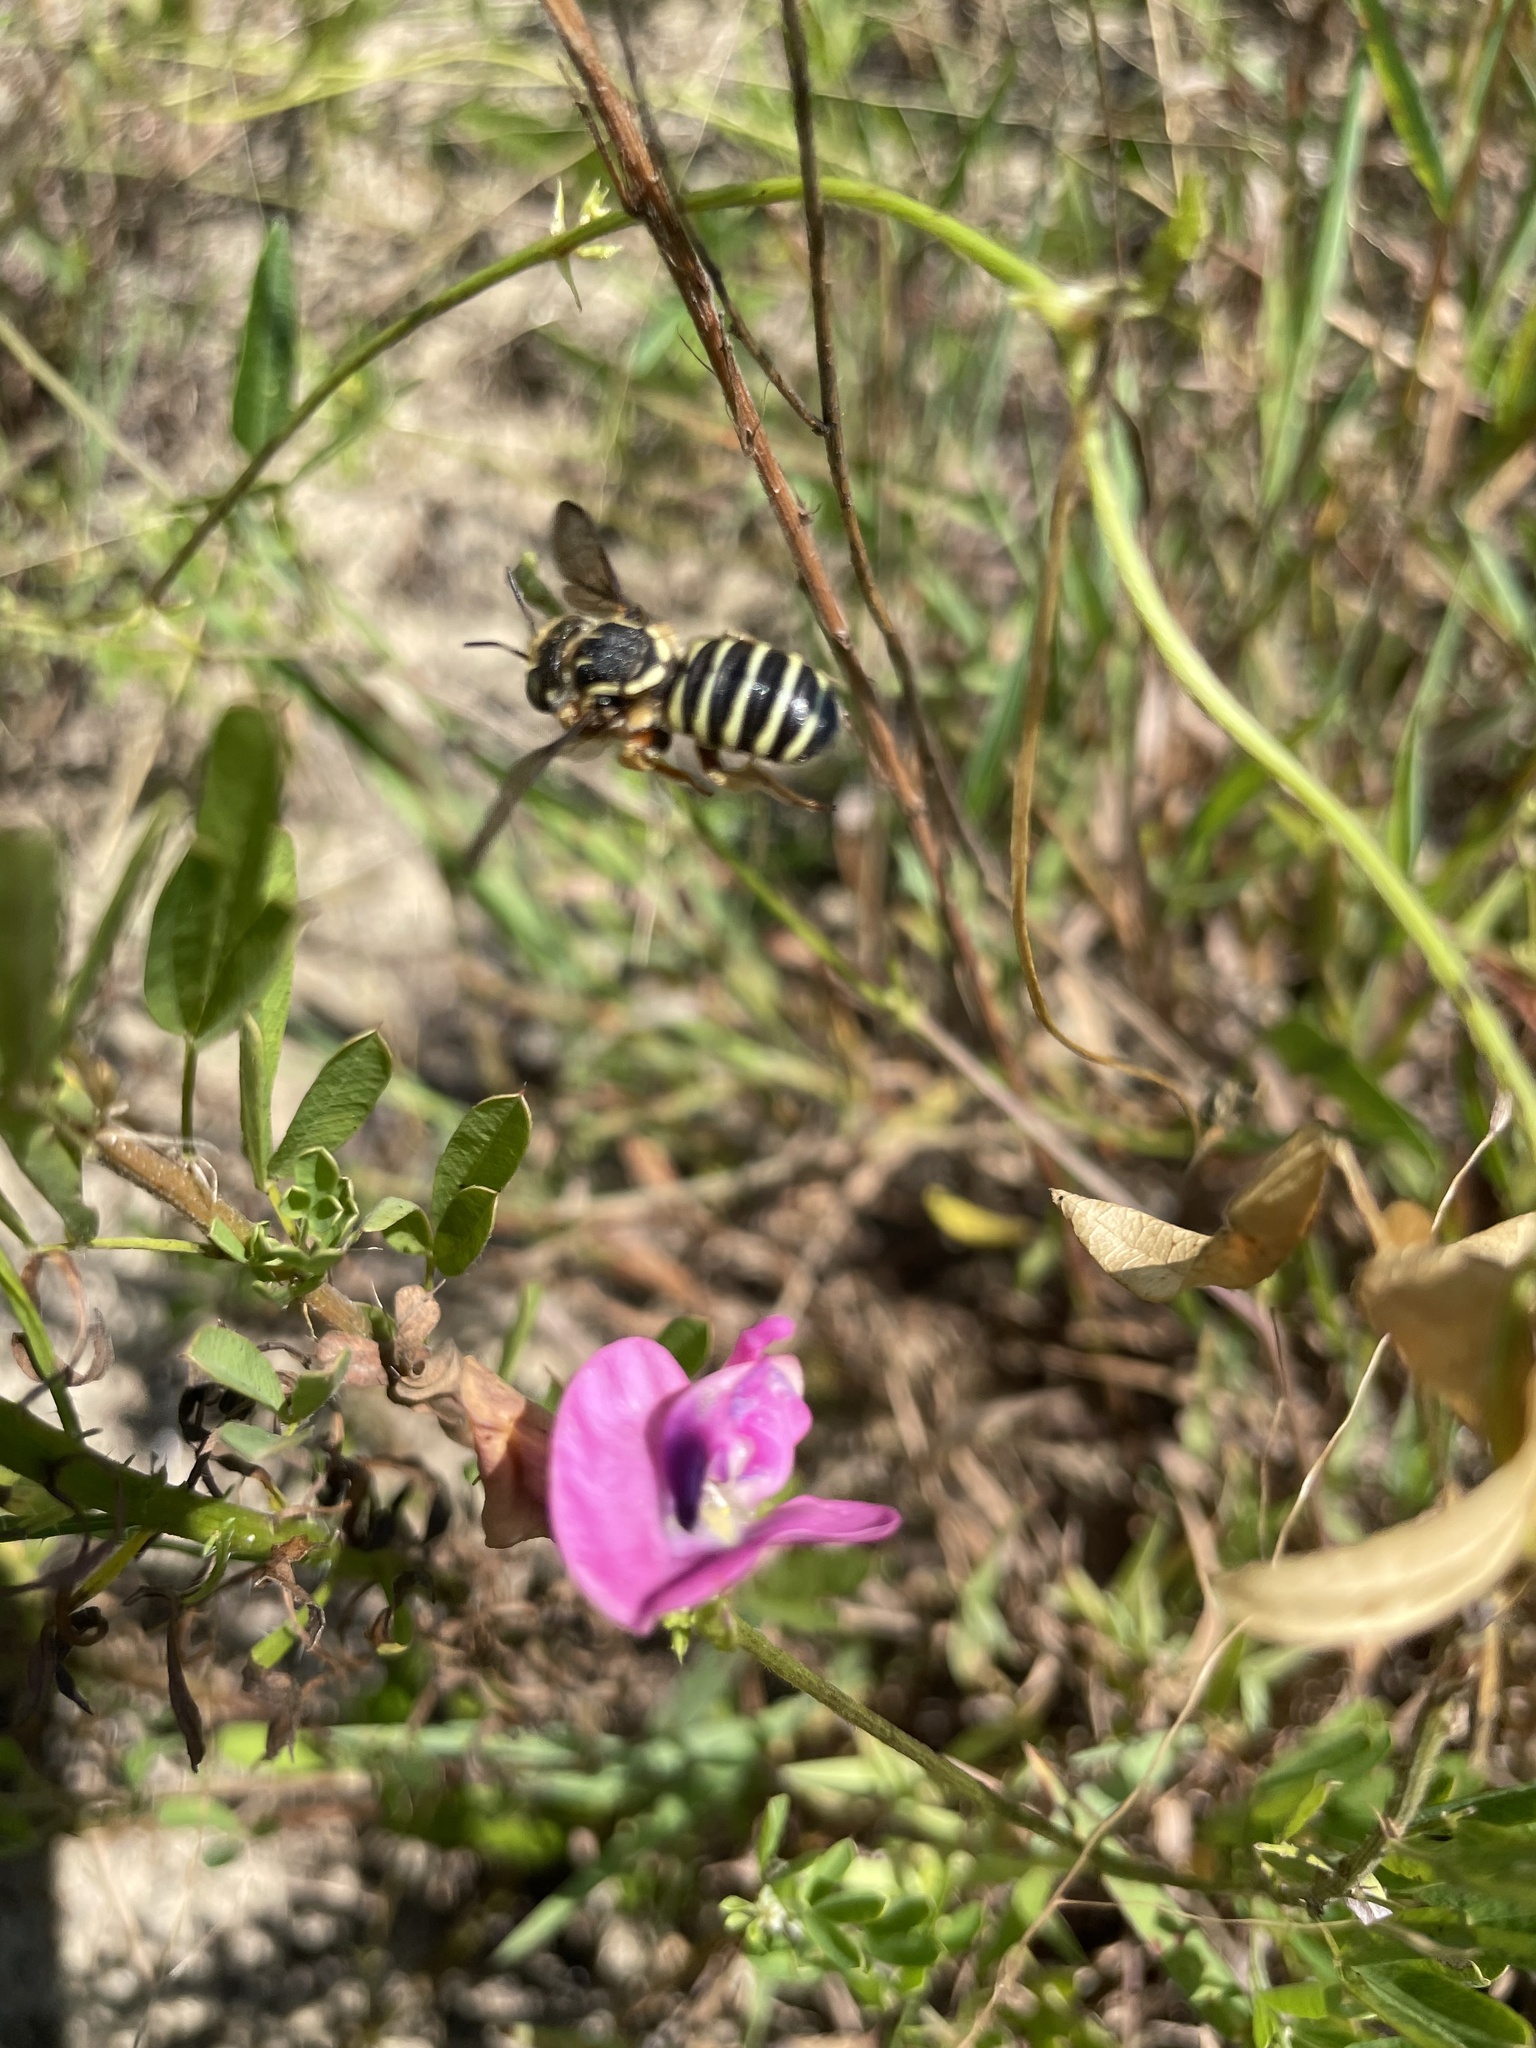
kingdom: Animalia
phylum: Arthropoda
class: Insecta
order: Hymenoptera
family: Megachilidae
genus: Trachusa
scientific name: Trachusa dorsalis
